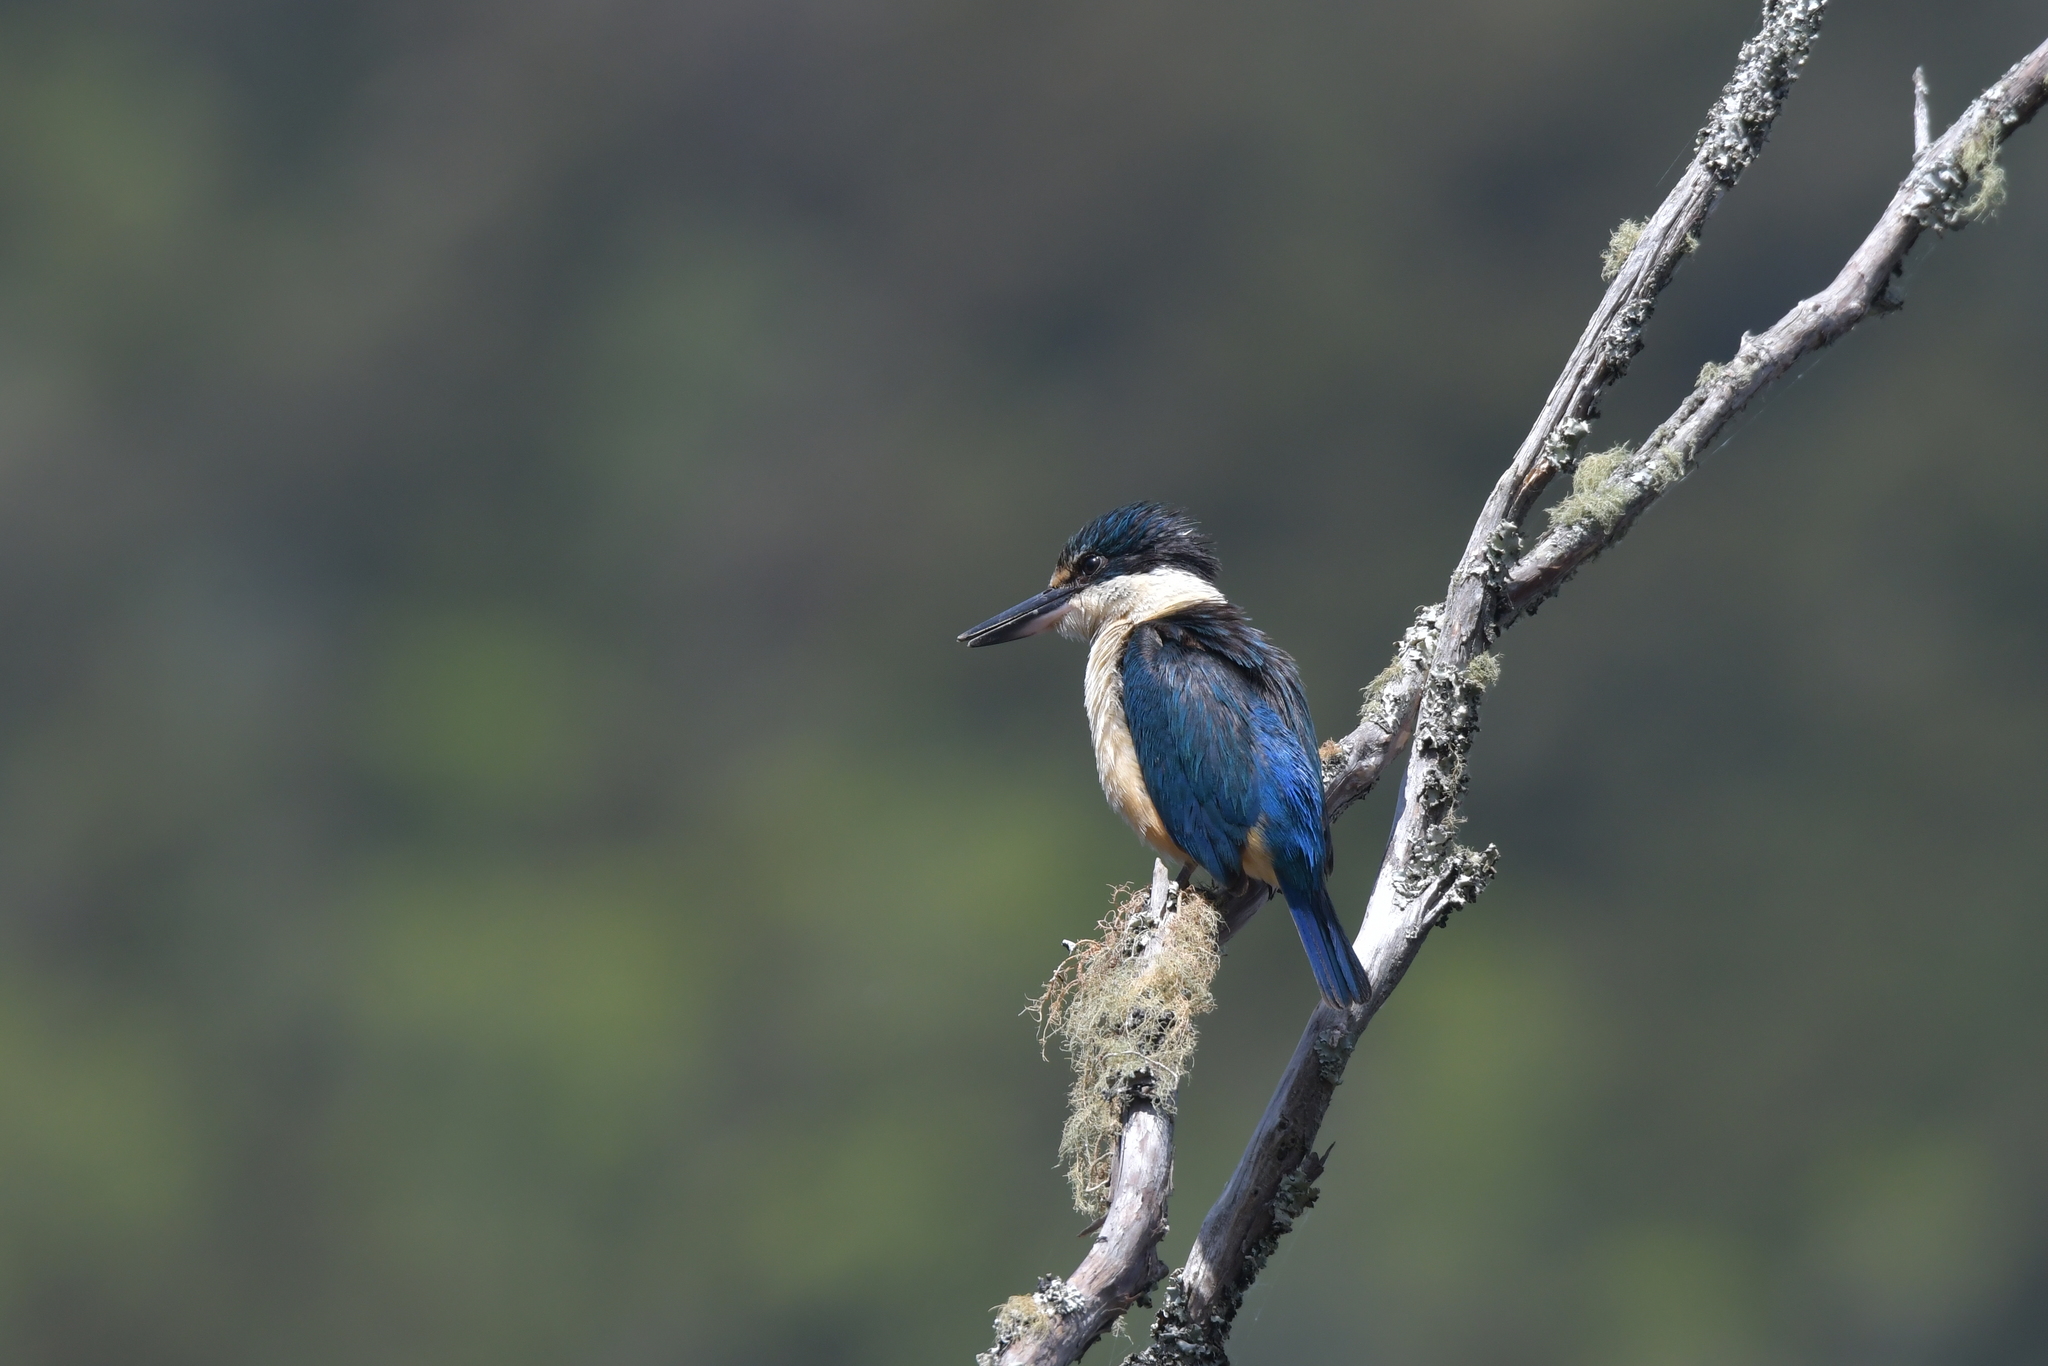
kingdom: Animalia
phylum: Chordata
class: Aves
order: Coraciiformes
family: Alcedinidae
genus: Todiramphus
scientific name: Todiramphus sanctus
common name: Sacred kingfisher
